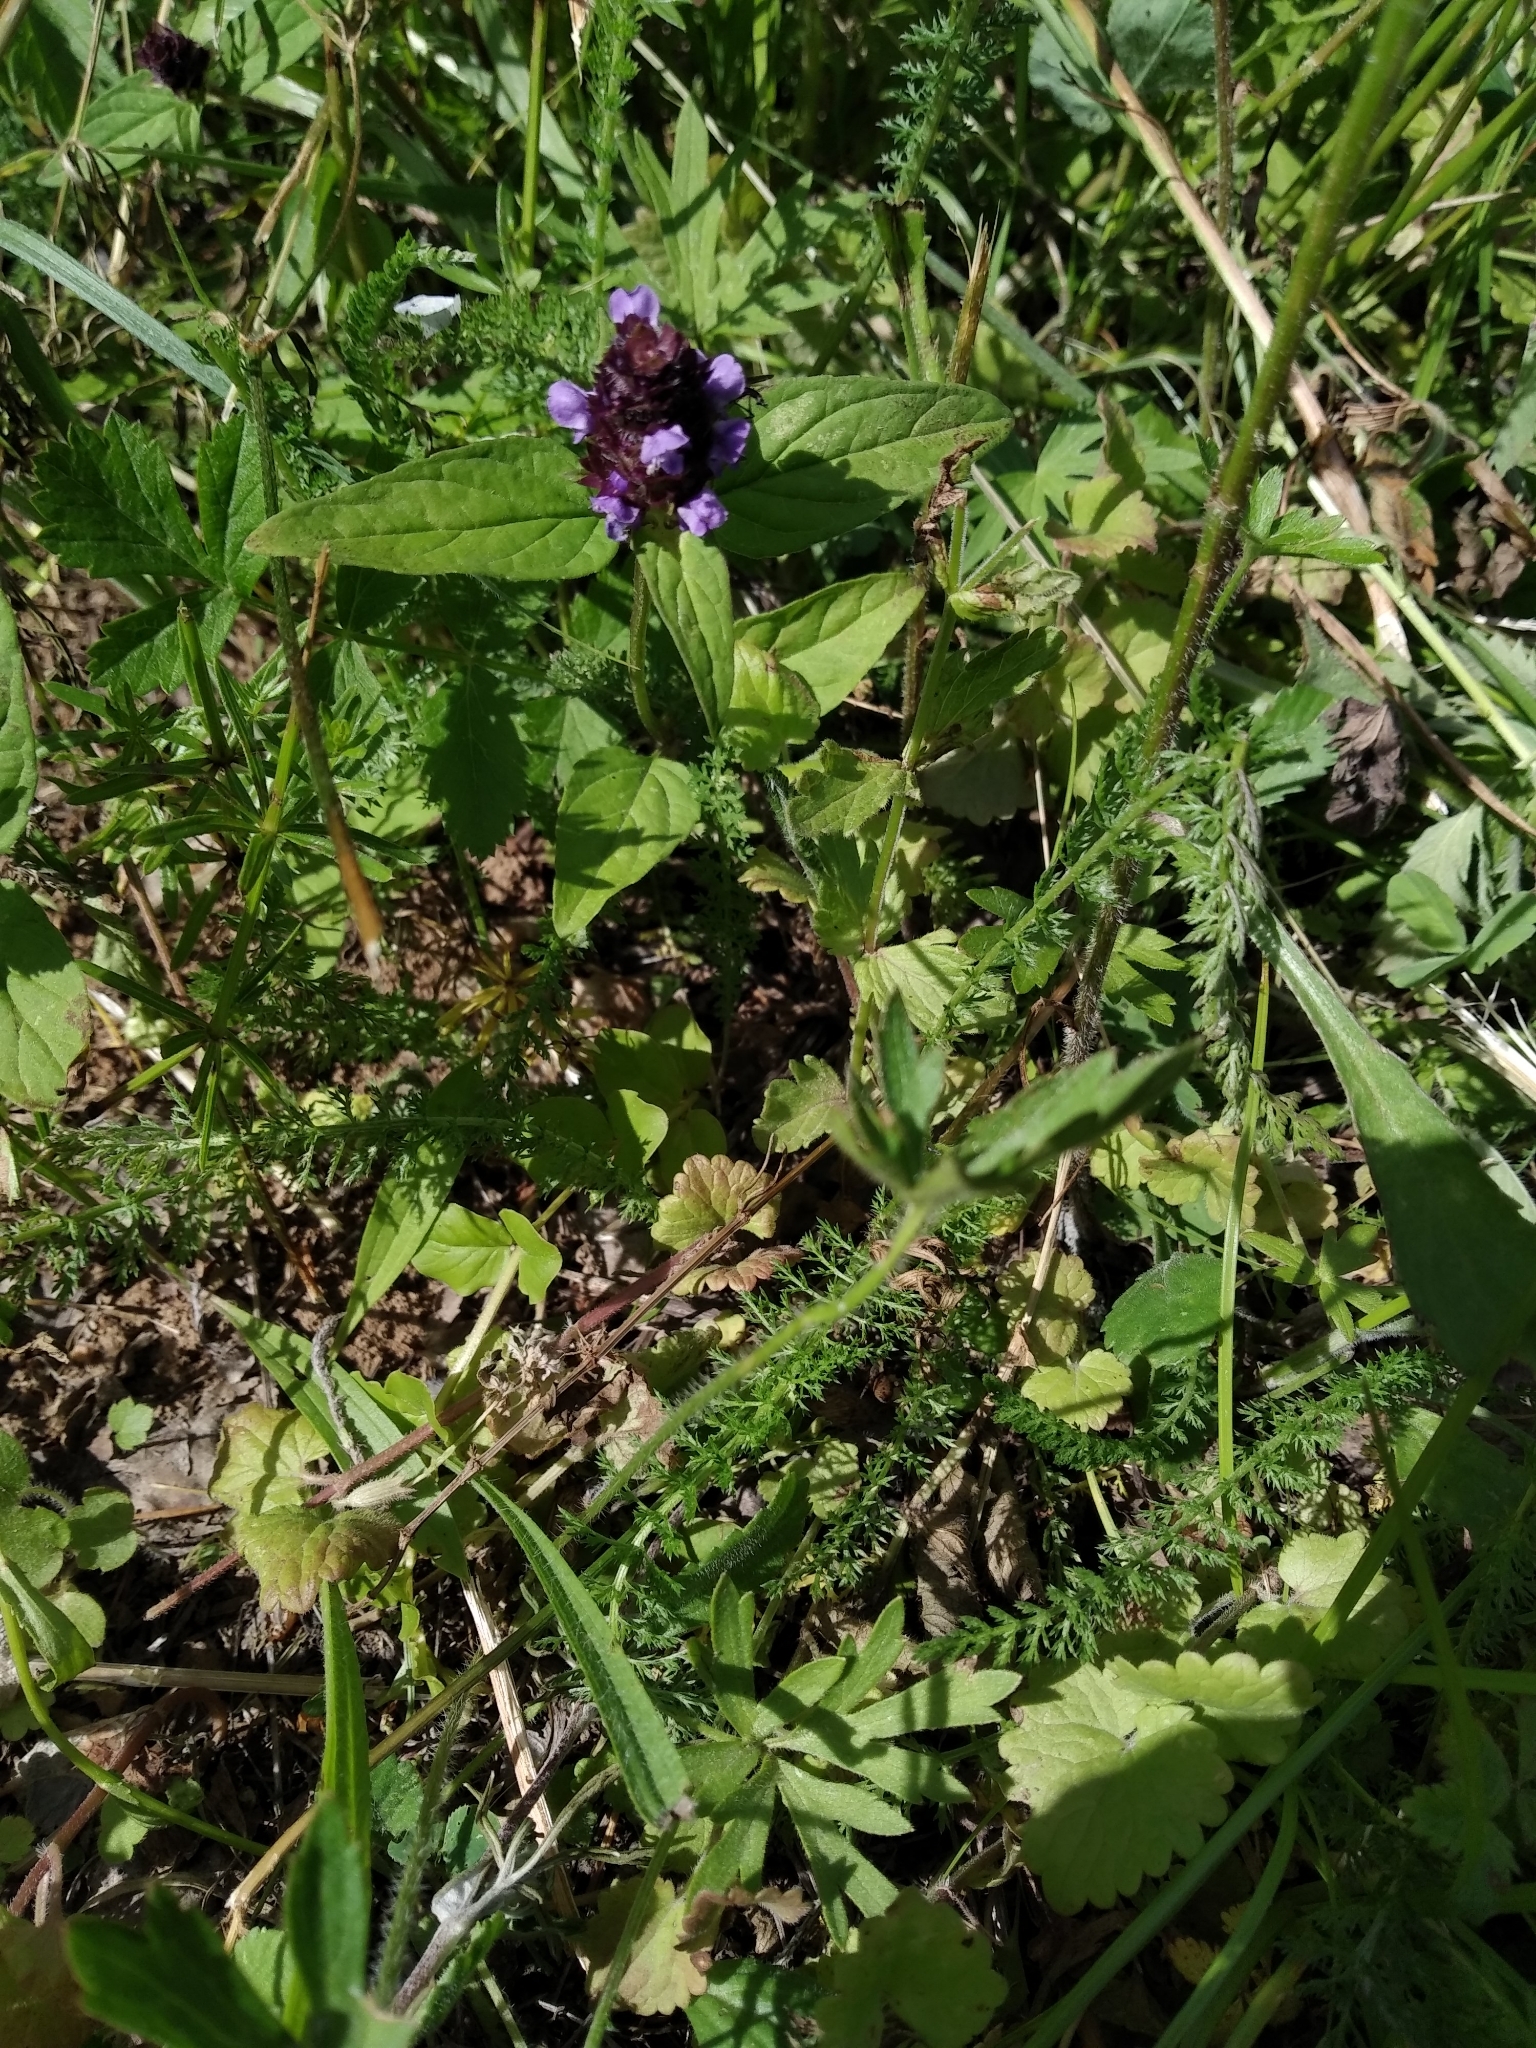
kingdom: Plantae
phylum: Tracheophyta
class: Magnoliopsida
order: Lamiales
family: Lamiaceae
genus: Prunella
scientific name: Prunella vulgaris
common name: Heal-all
